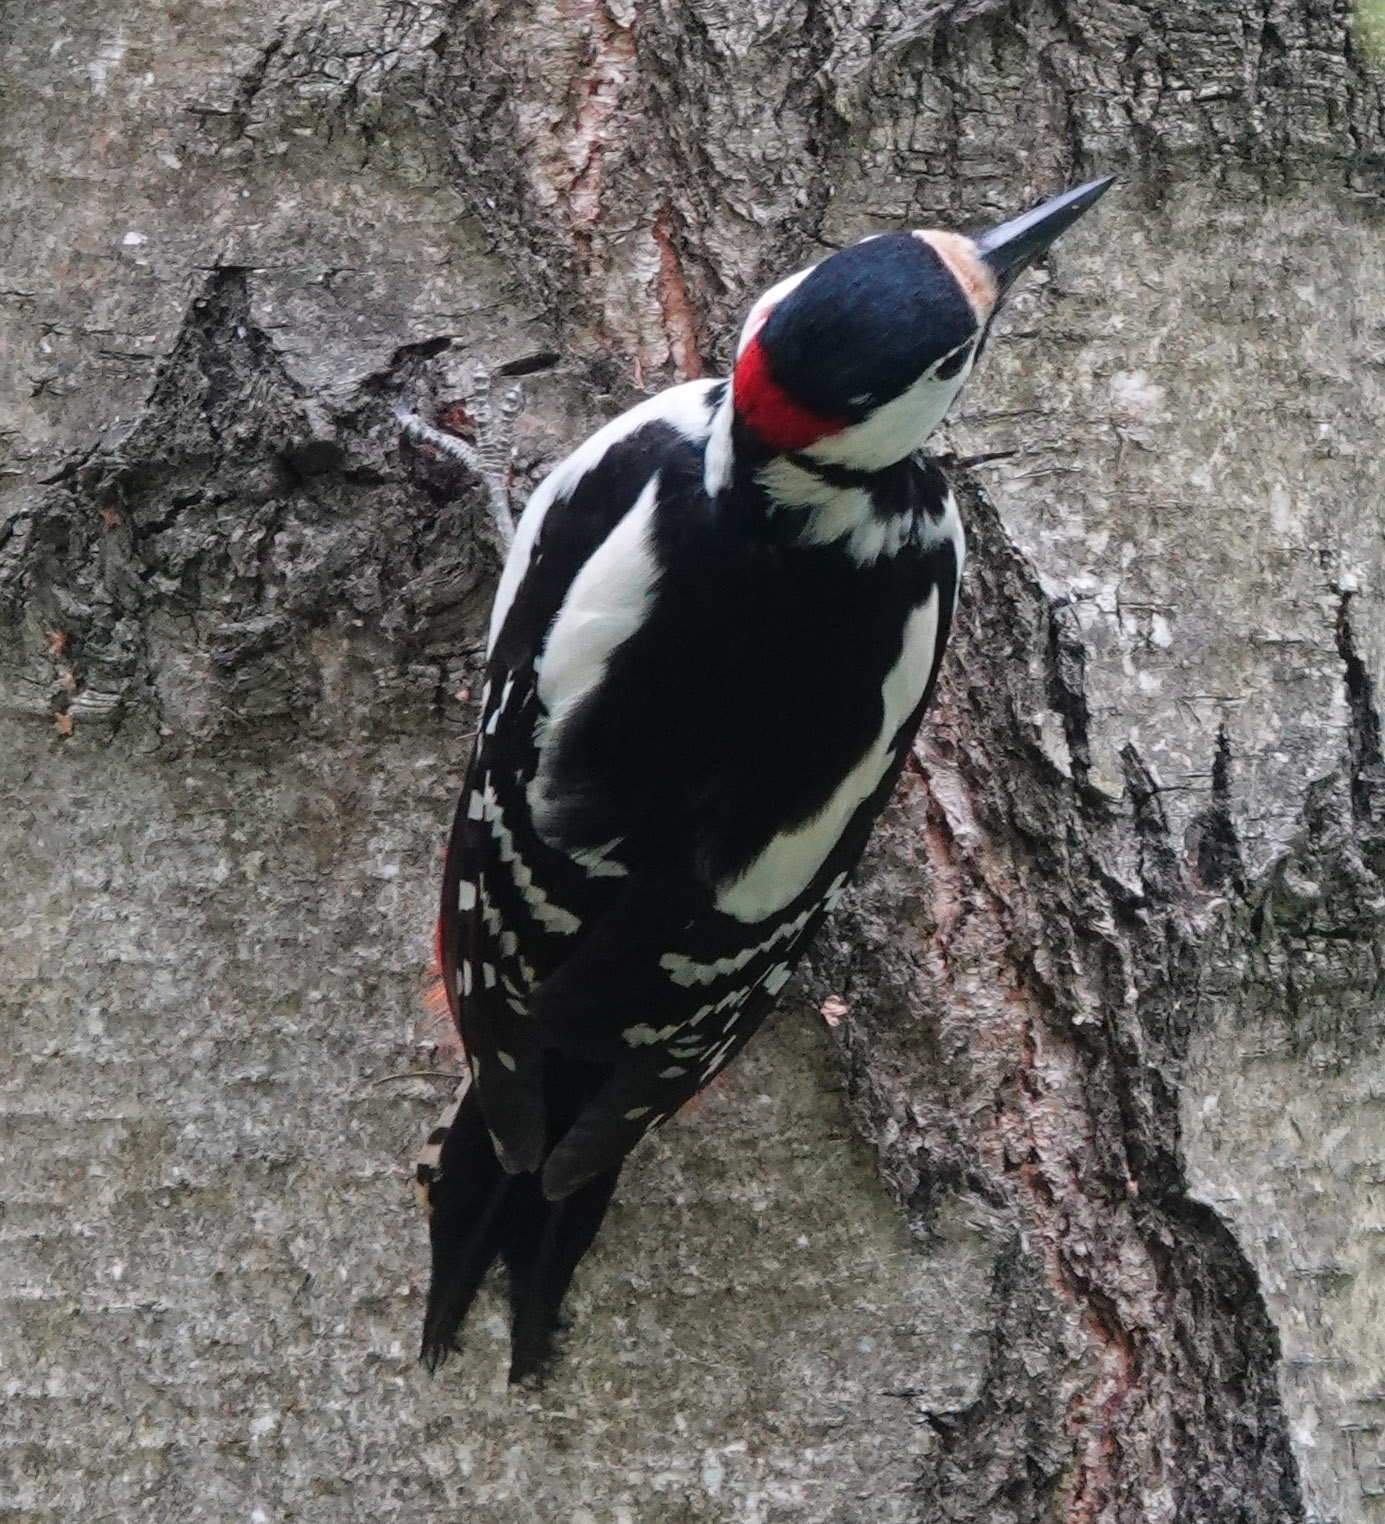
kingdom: Animalia
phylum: Chordata
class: Aves
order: Piciformes
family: Picidae
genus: Dendrocopos
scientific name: Dendrocopos major
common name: Great spotted woodpecker
